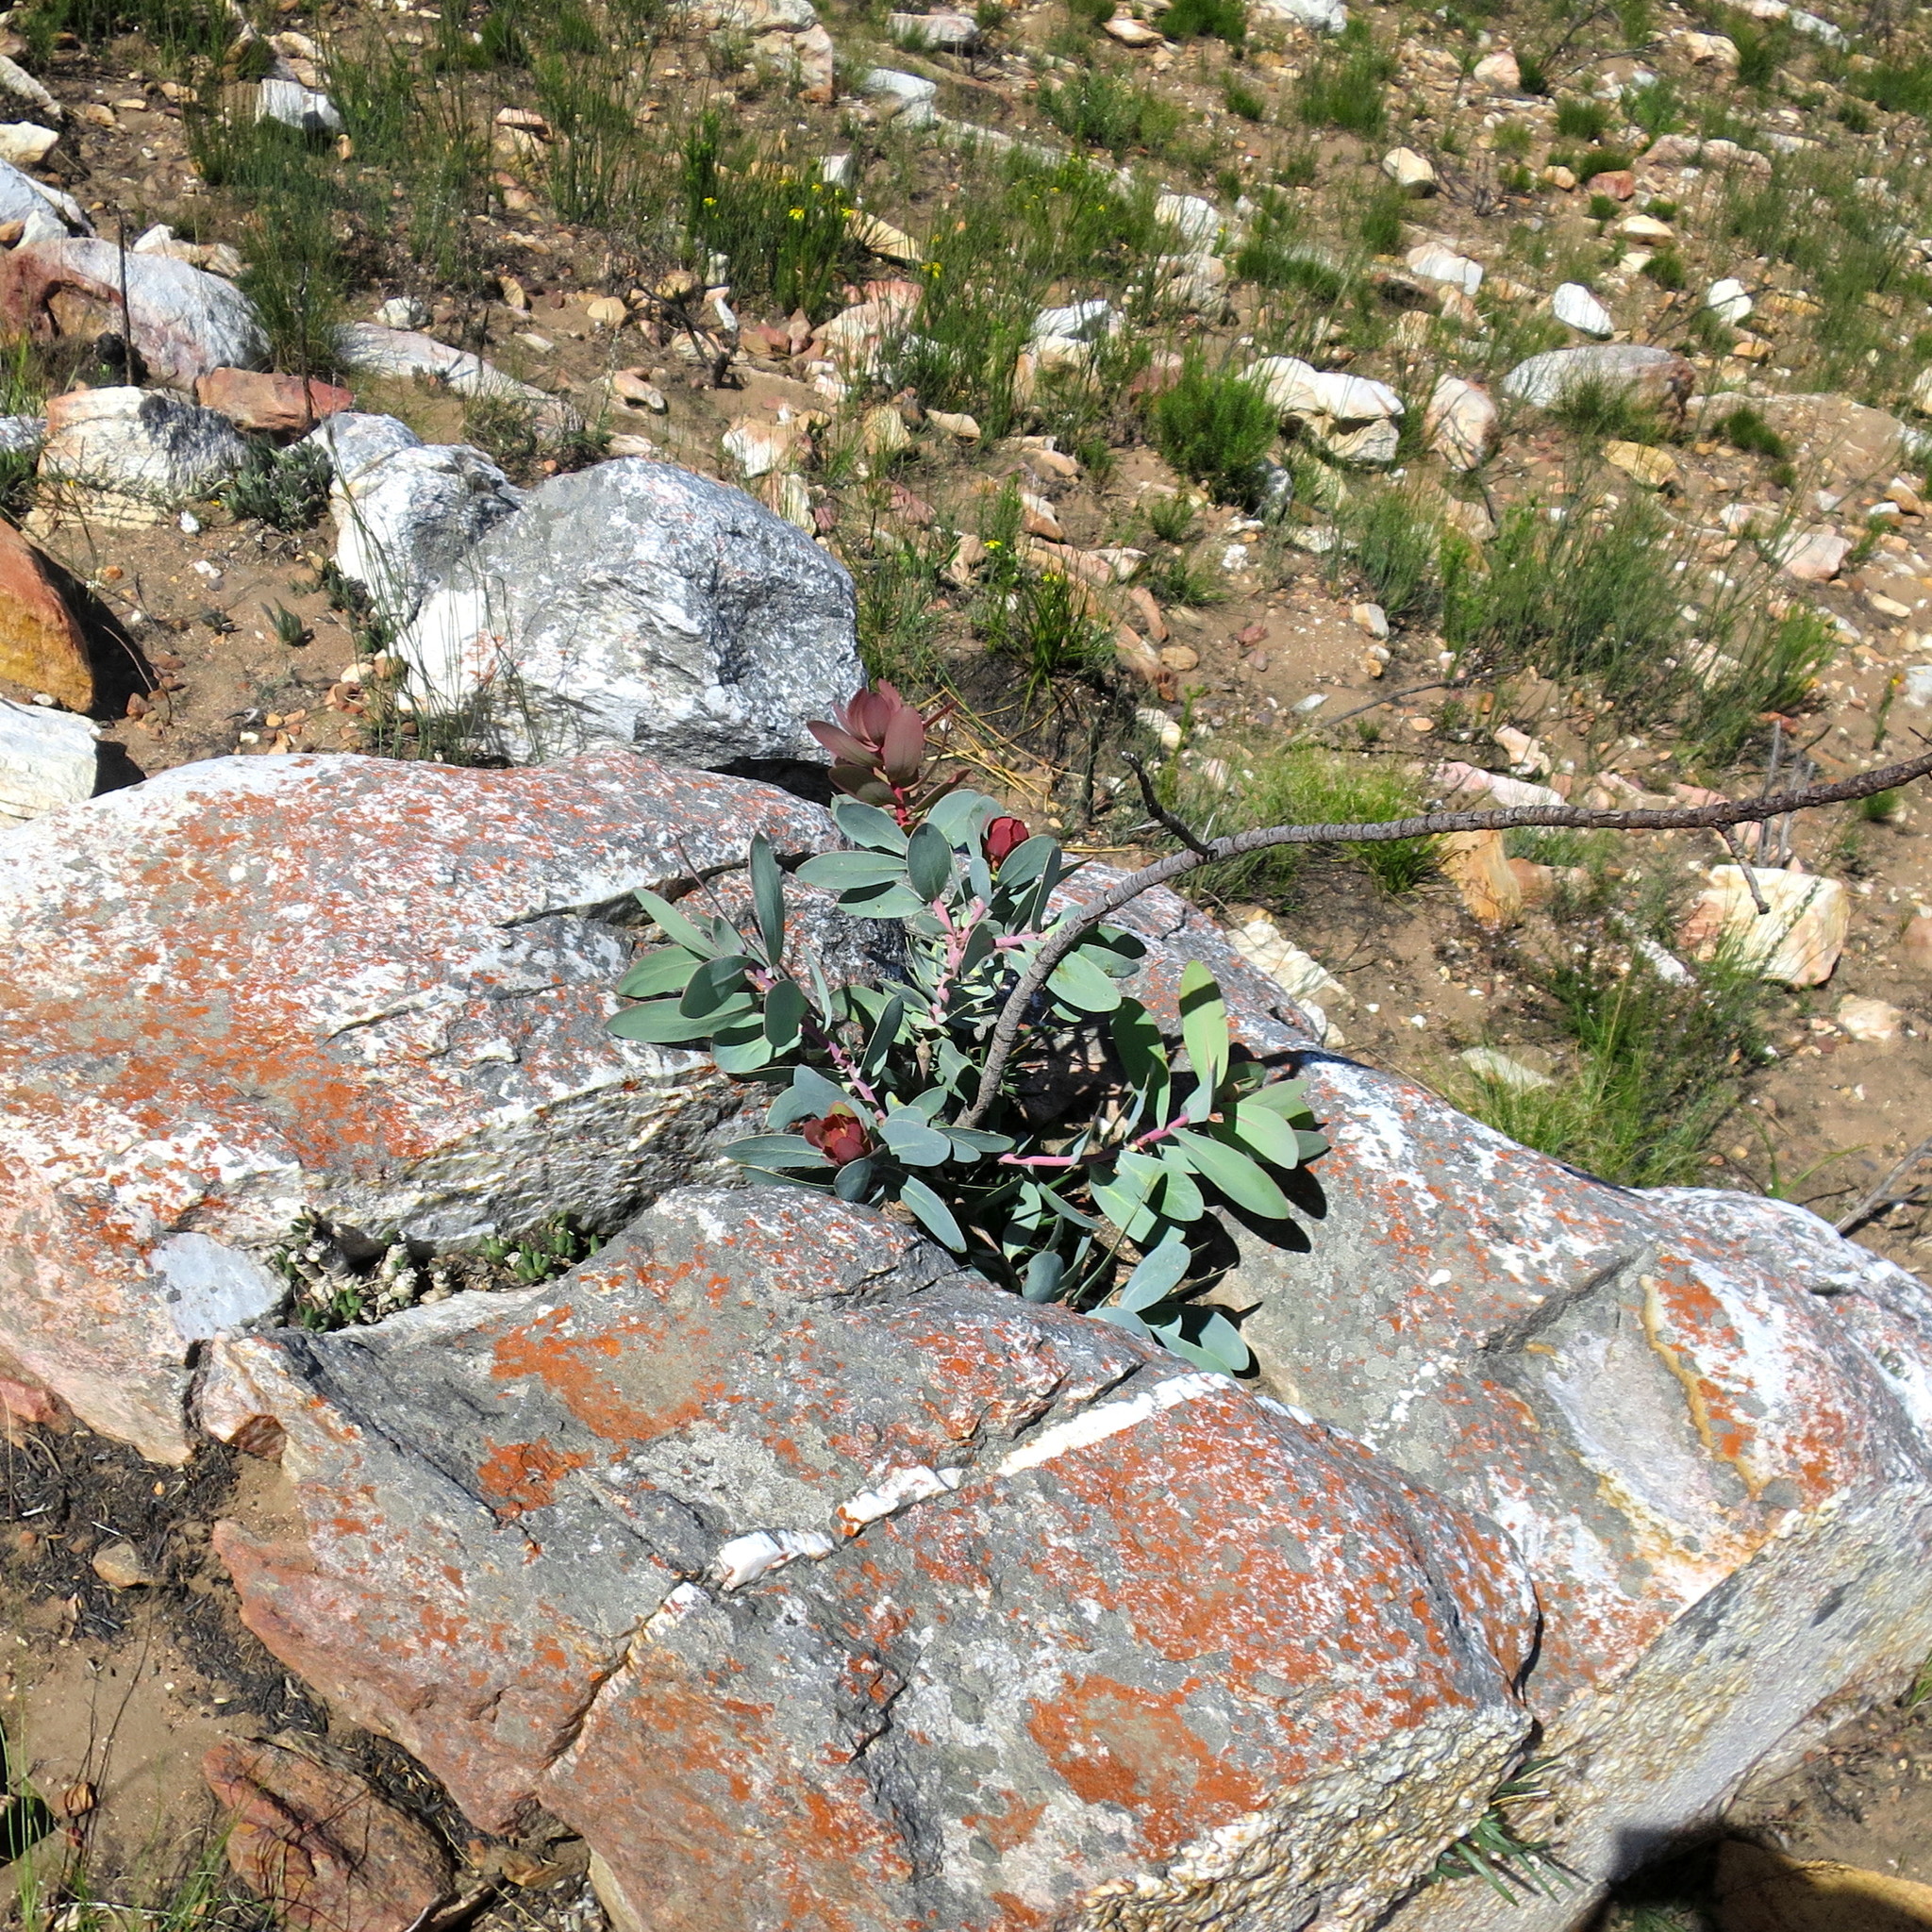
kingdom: Plantae
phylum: Tracheophyta
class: Magnoliopsida
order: Proteales
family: Proteaceae
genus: Protea
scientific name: Protea nitida
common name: Tree protea
